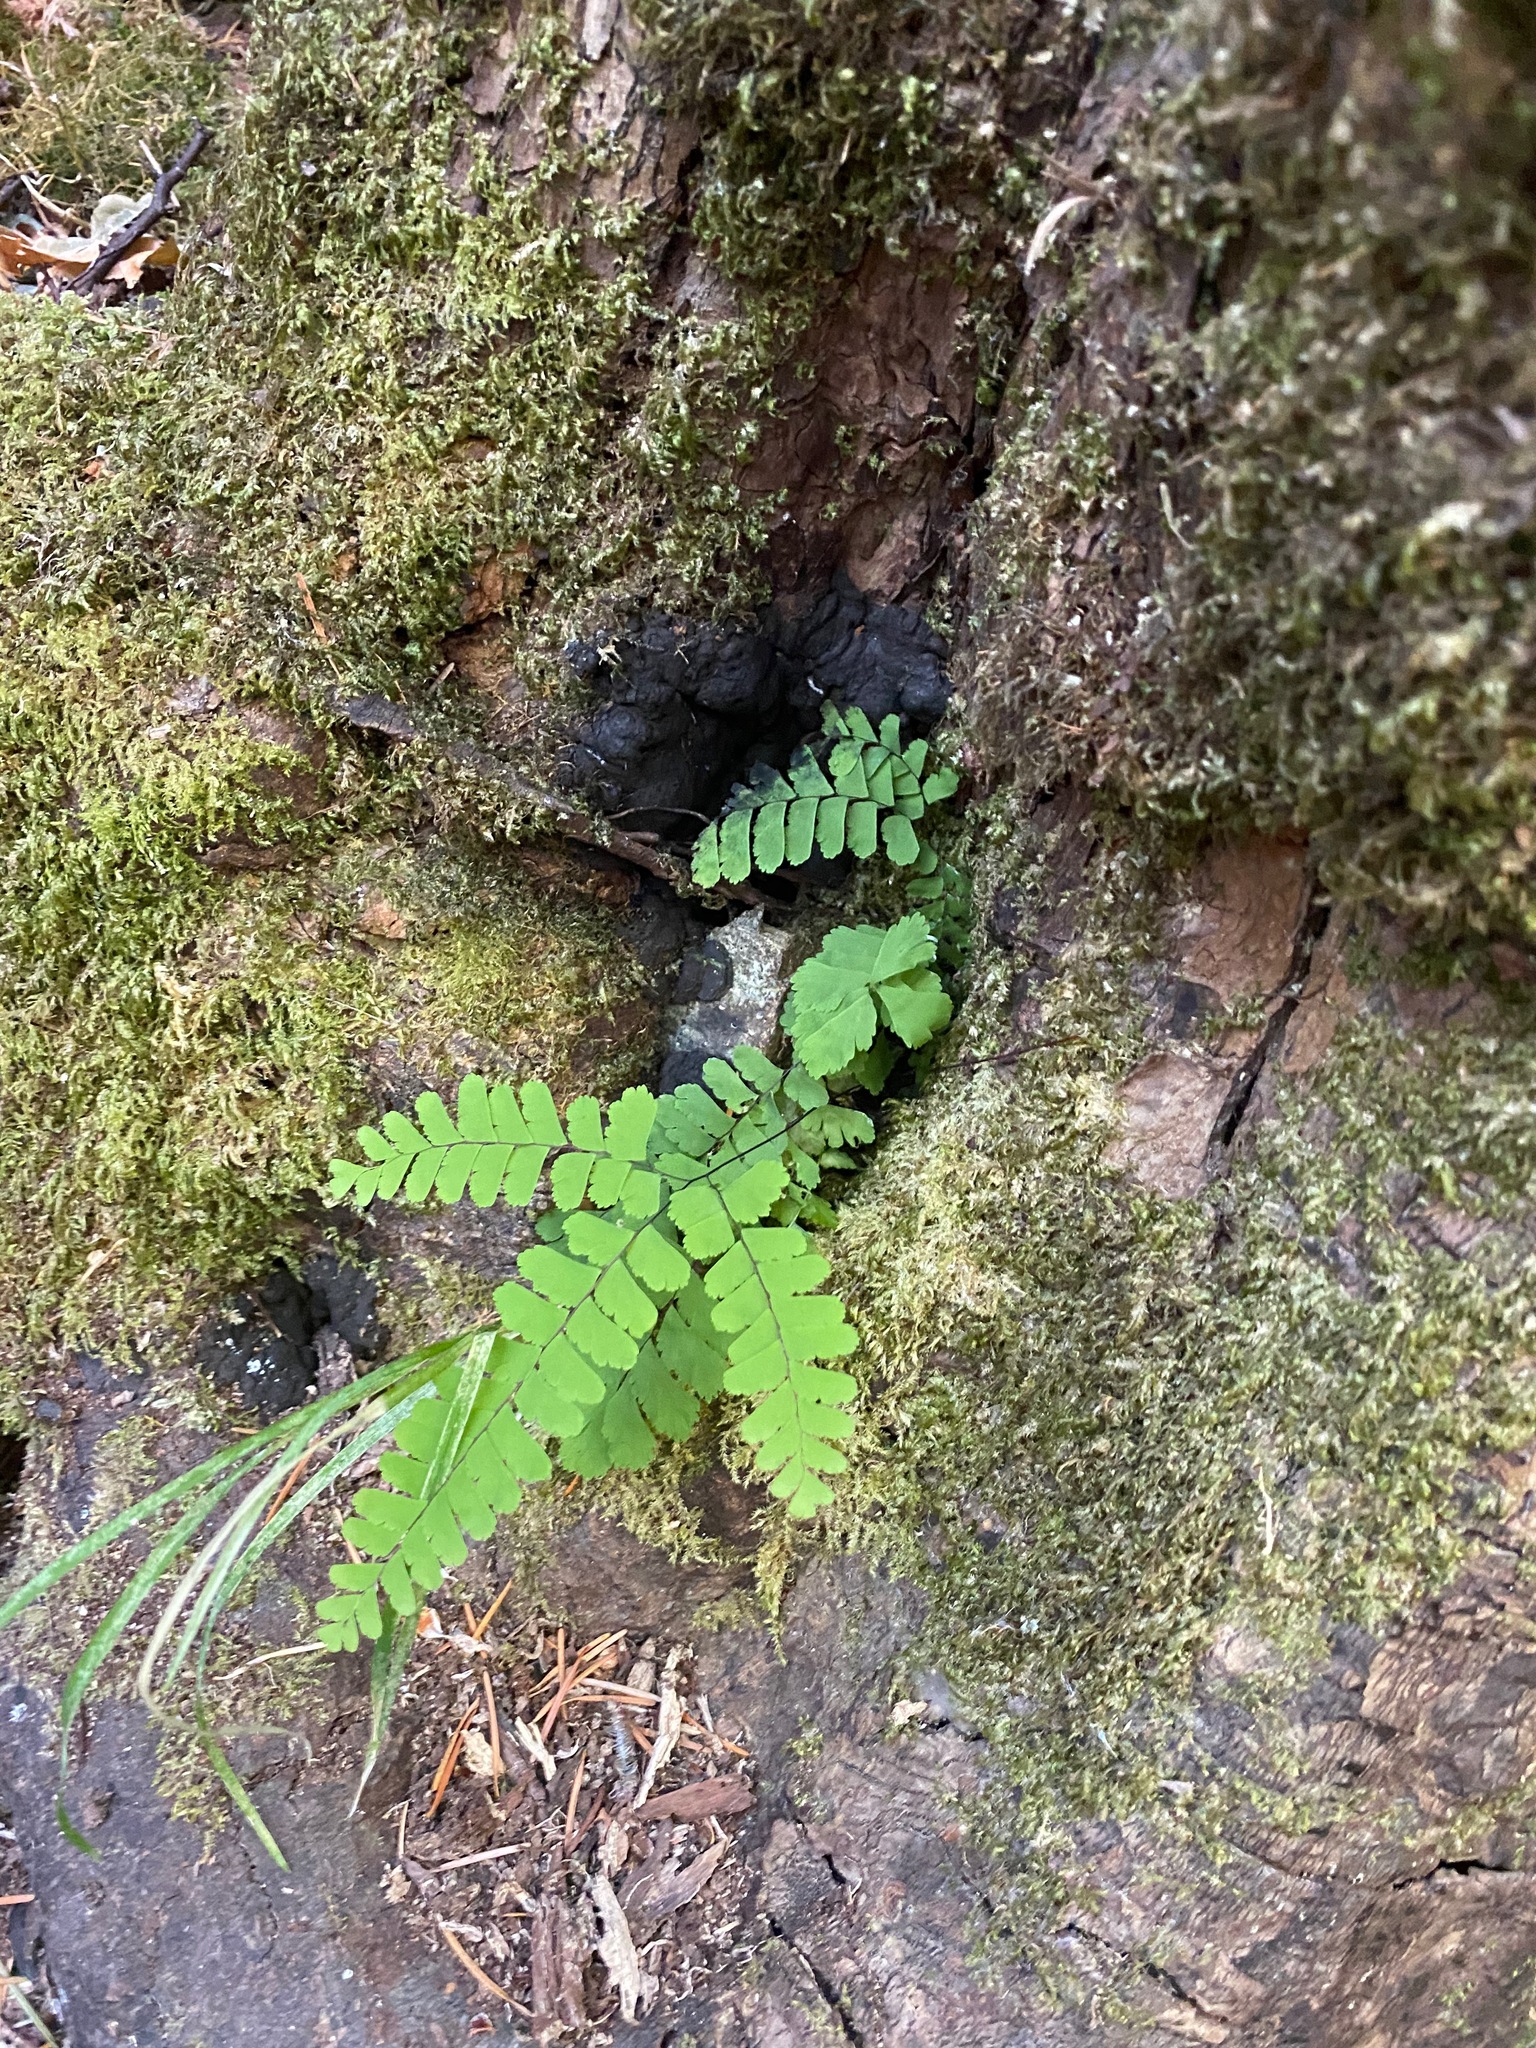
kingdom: Plantae
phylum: Tracheophyta
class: Polypodiopsida
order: Polypodiales
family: Pteridaceae
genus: Adiantum
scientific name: Adiantum aleuticum
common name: Aleutian maidenhair fern
